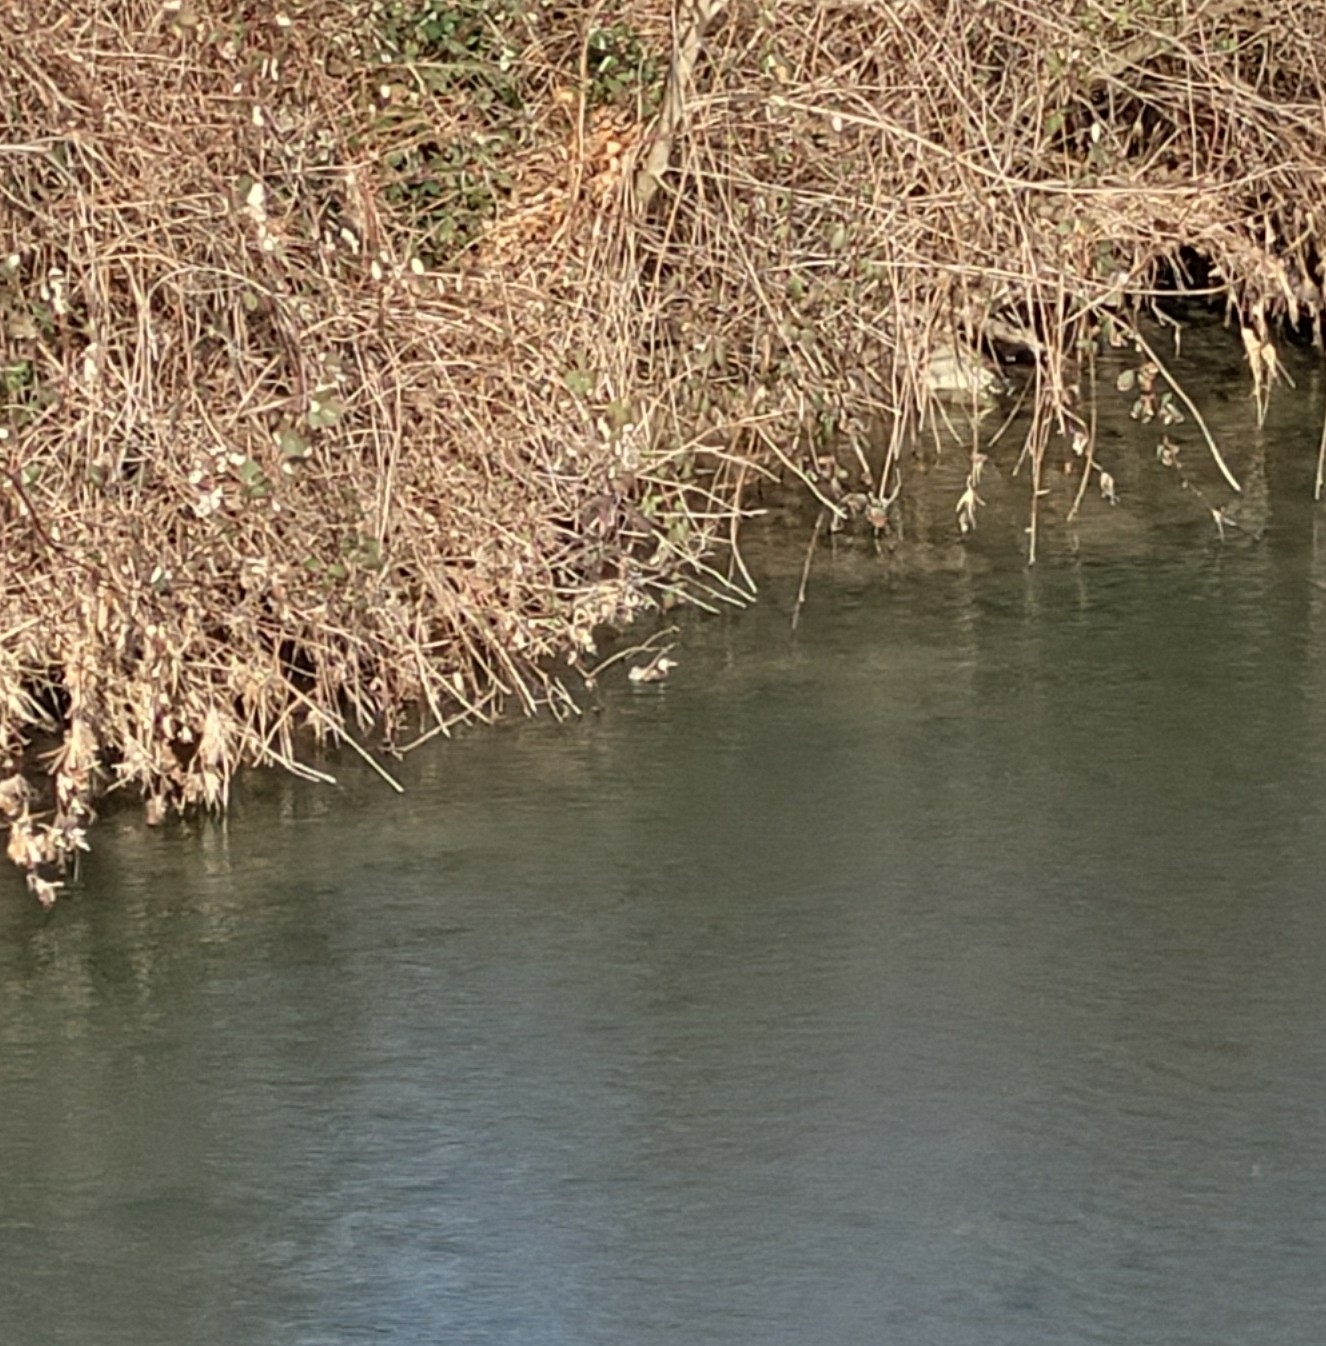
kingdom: Animalia
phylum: Chordata
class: Aves
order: Podicipediformes
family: Podicipedidae
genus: Tachybaptus
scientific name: Tachybaptus ruficollis
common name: Little grebe
